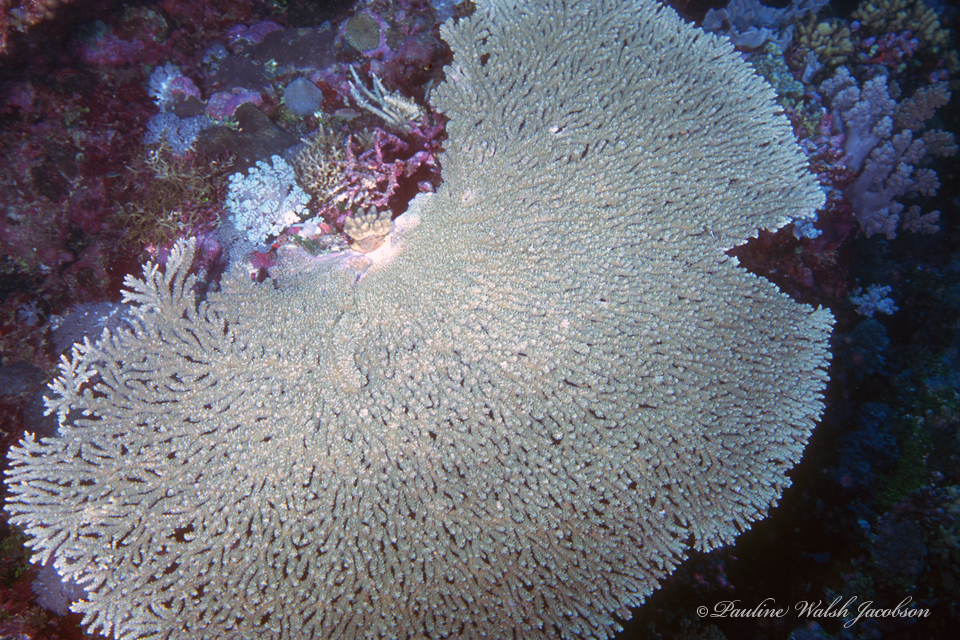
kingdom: Animalia
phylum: Cnidaria
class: Anthozoa
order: Scleractinia
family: Acroporidae
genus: Acropora
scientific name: Acropora clathrata
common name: Plate coral
